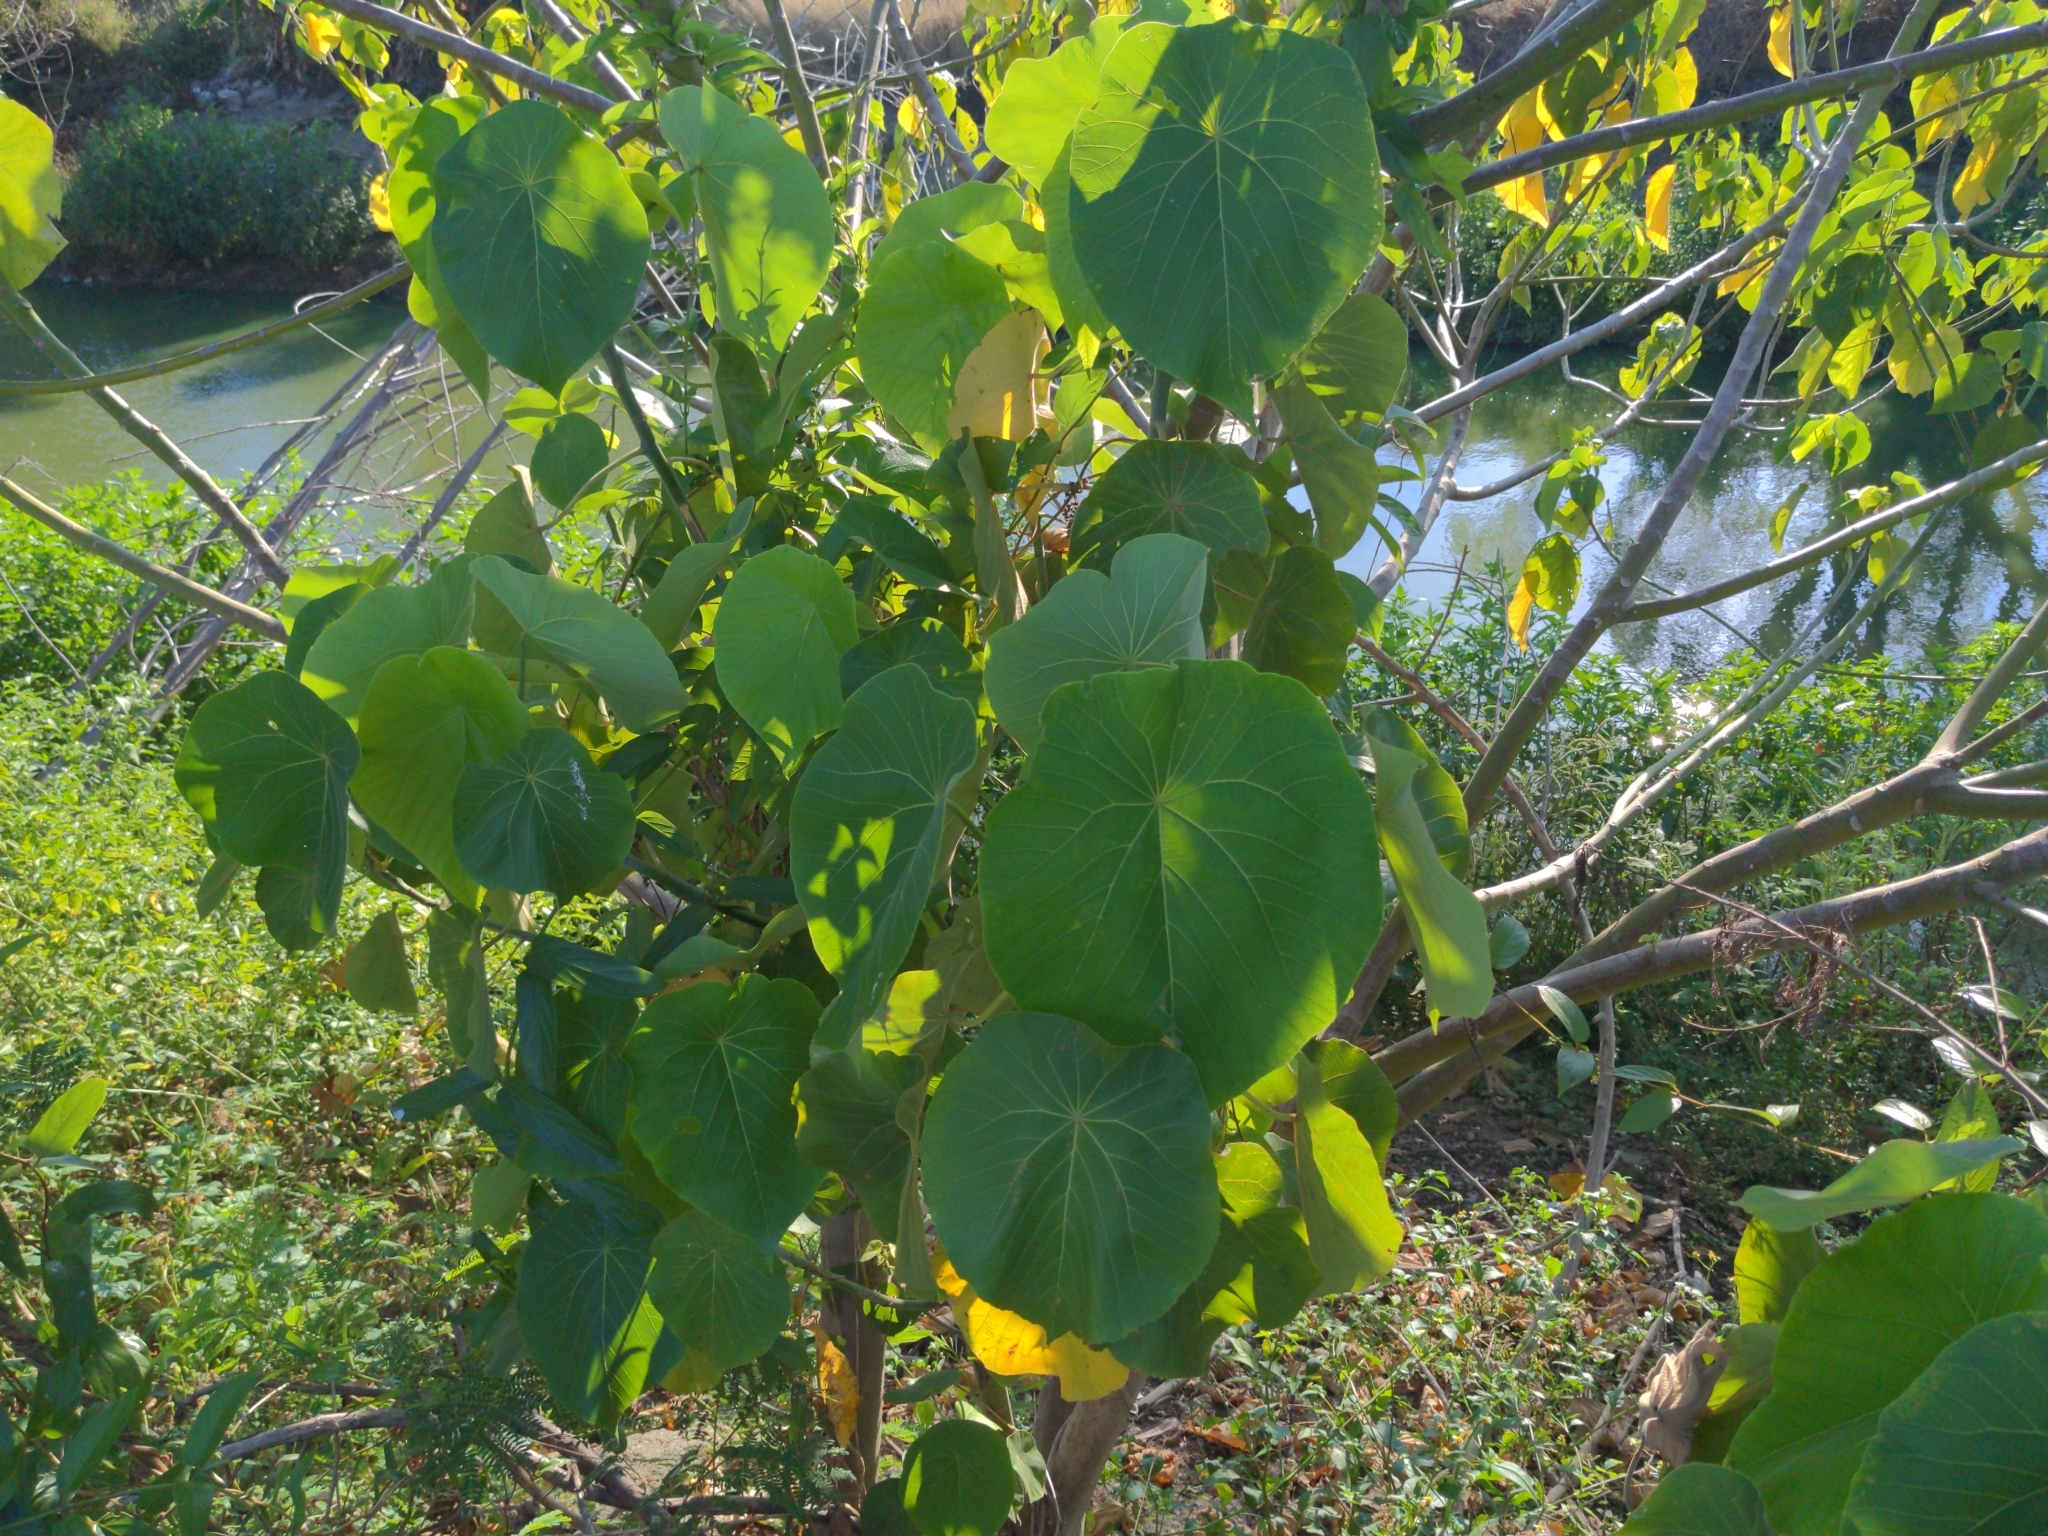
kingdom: Plantae
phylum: Tracheophyta
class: Magnoliopsida
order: Malpighiales
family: Euphorbiaceae
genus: Macaranga
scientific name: Macaranga tanarius
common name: Parasol leaf tree
